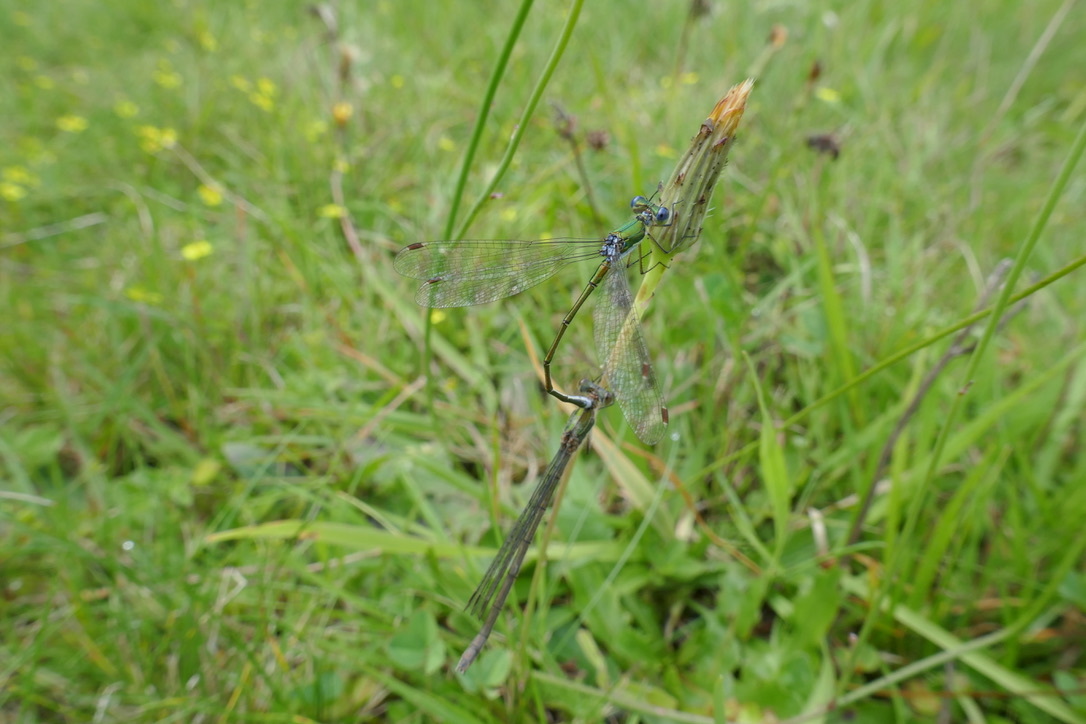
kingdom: Animalia
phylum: Arthropoda
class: Insecta
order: Odonata
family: Lestidae
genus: Lestes
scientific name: Lestes virens
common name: Small emerald spreadwing
